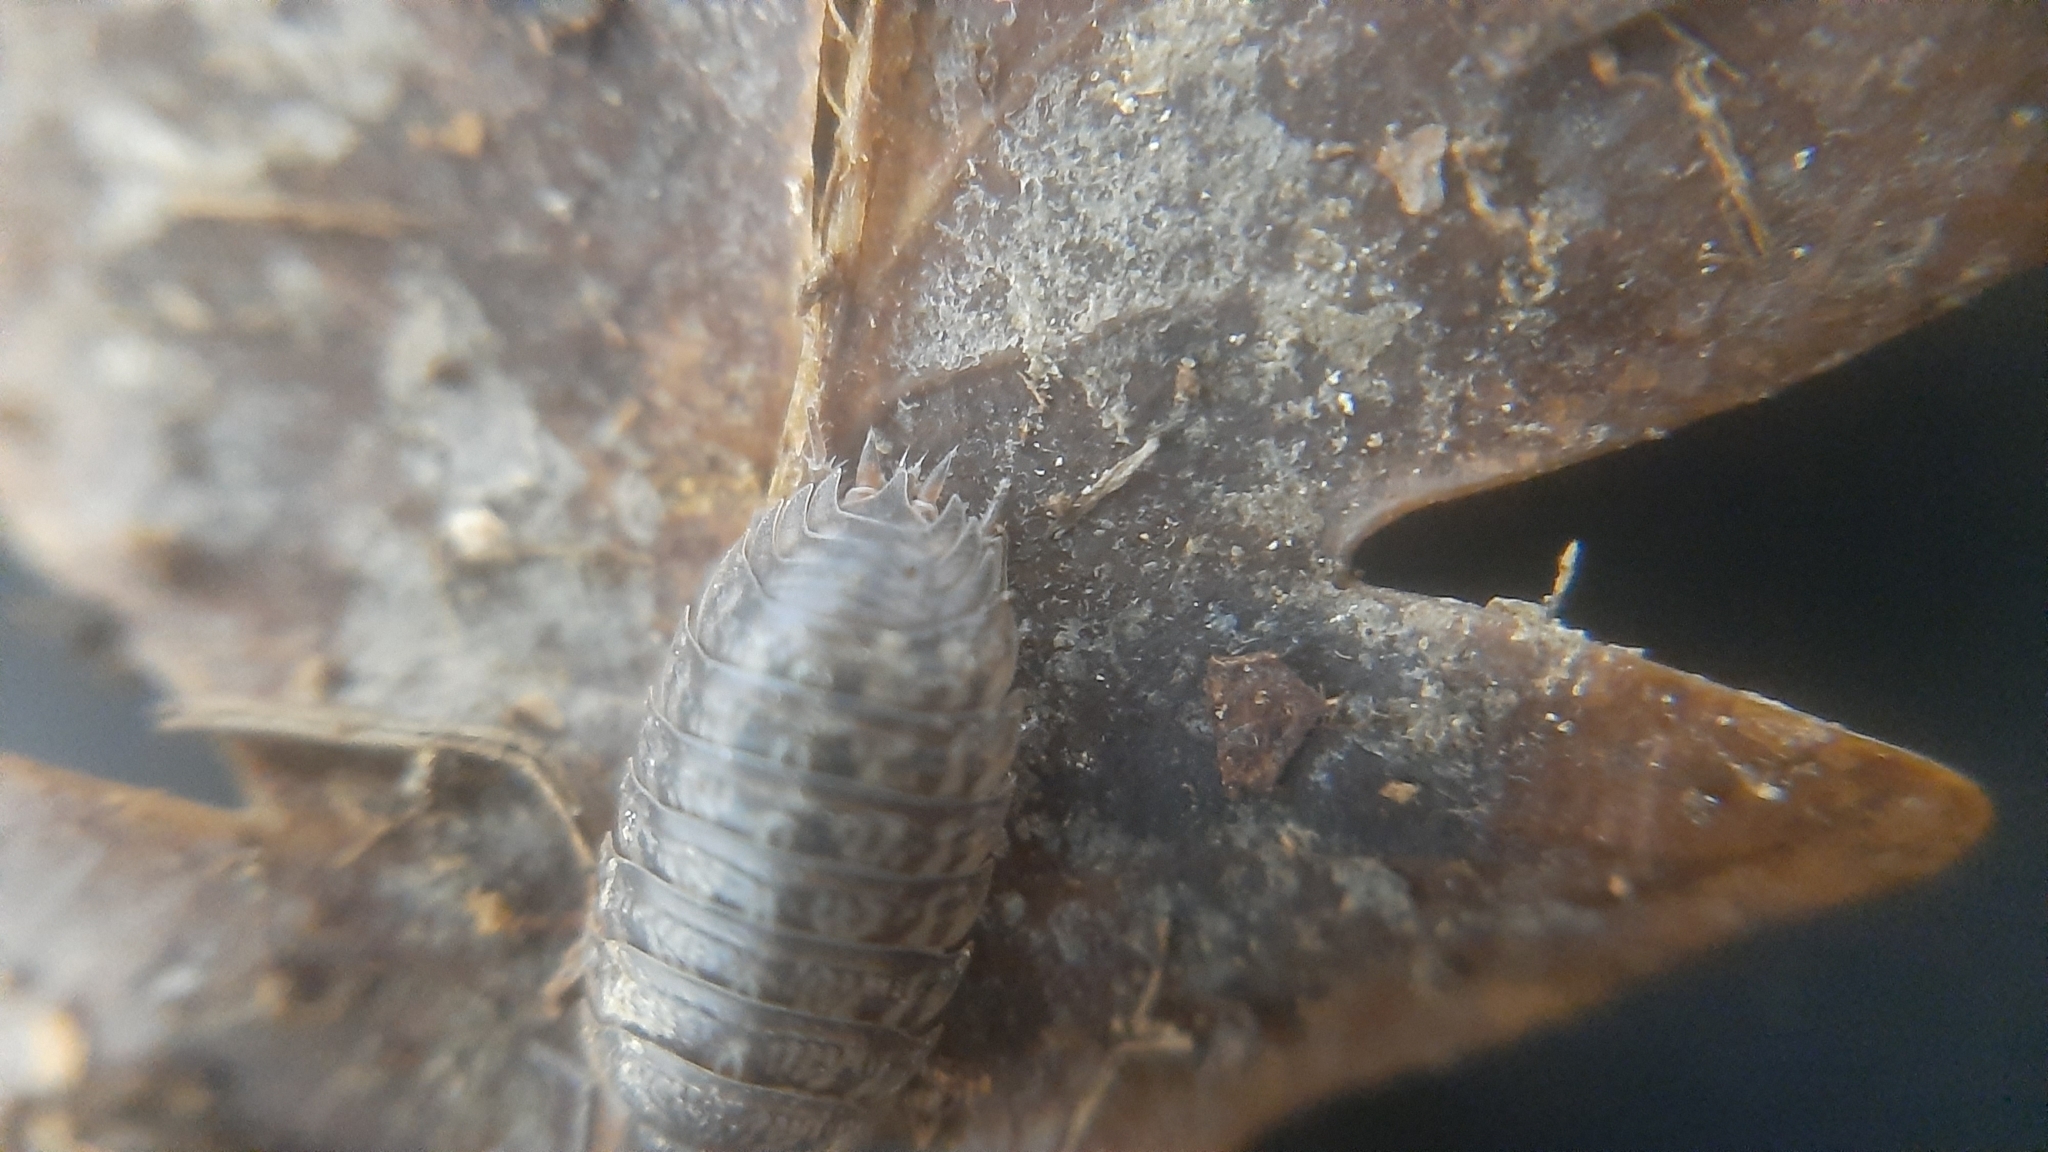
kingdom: Animalia
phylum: Arthropoda
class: Malacostraca
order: Isopoda
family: Trachelipodidae
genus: Trachelipus
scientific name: Trachelipus razzautii
